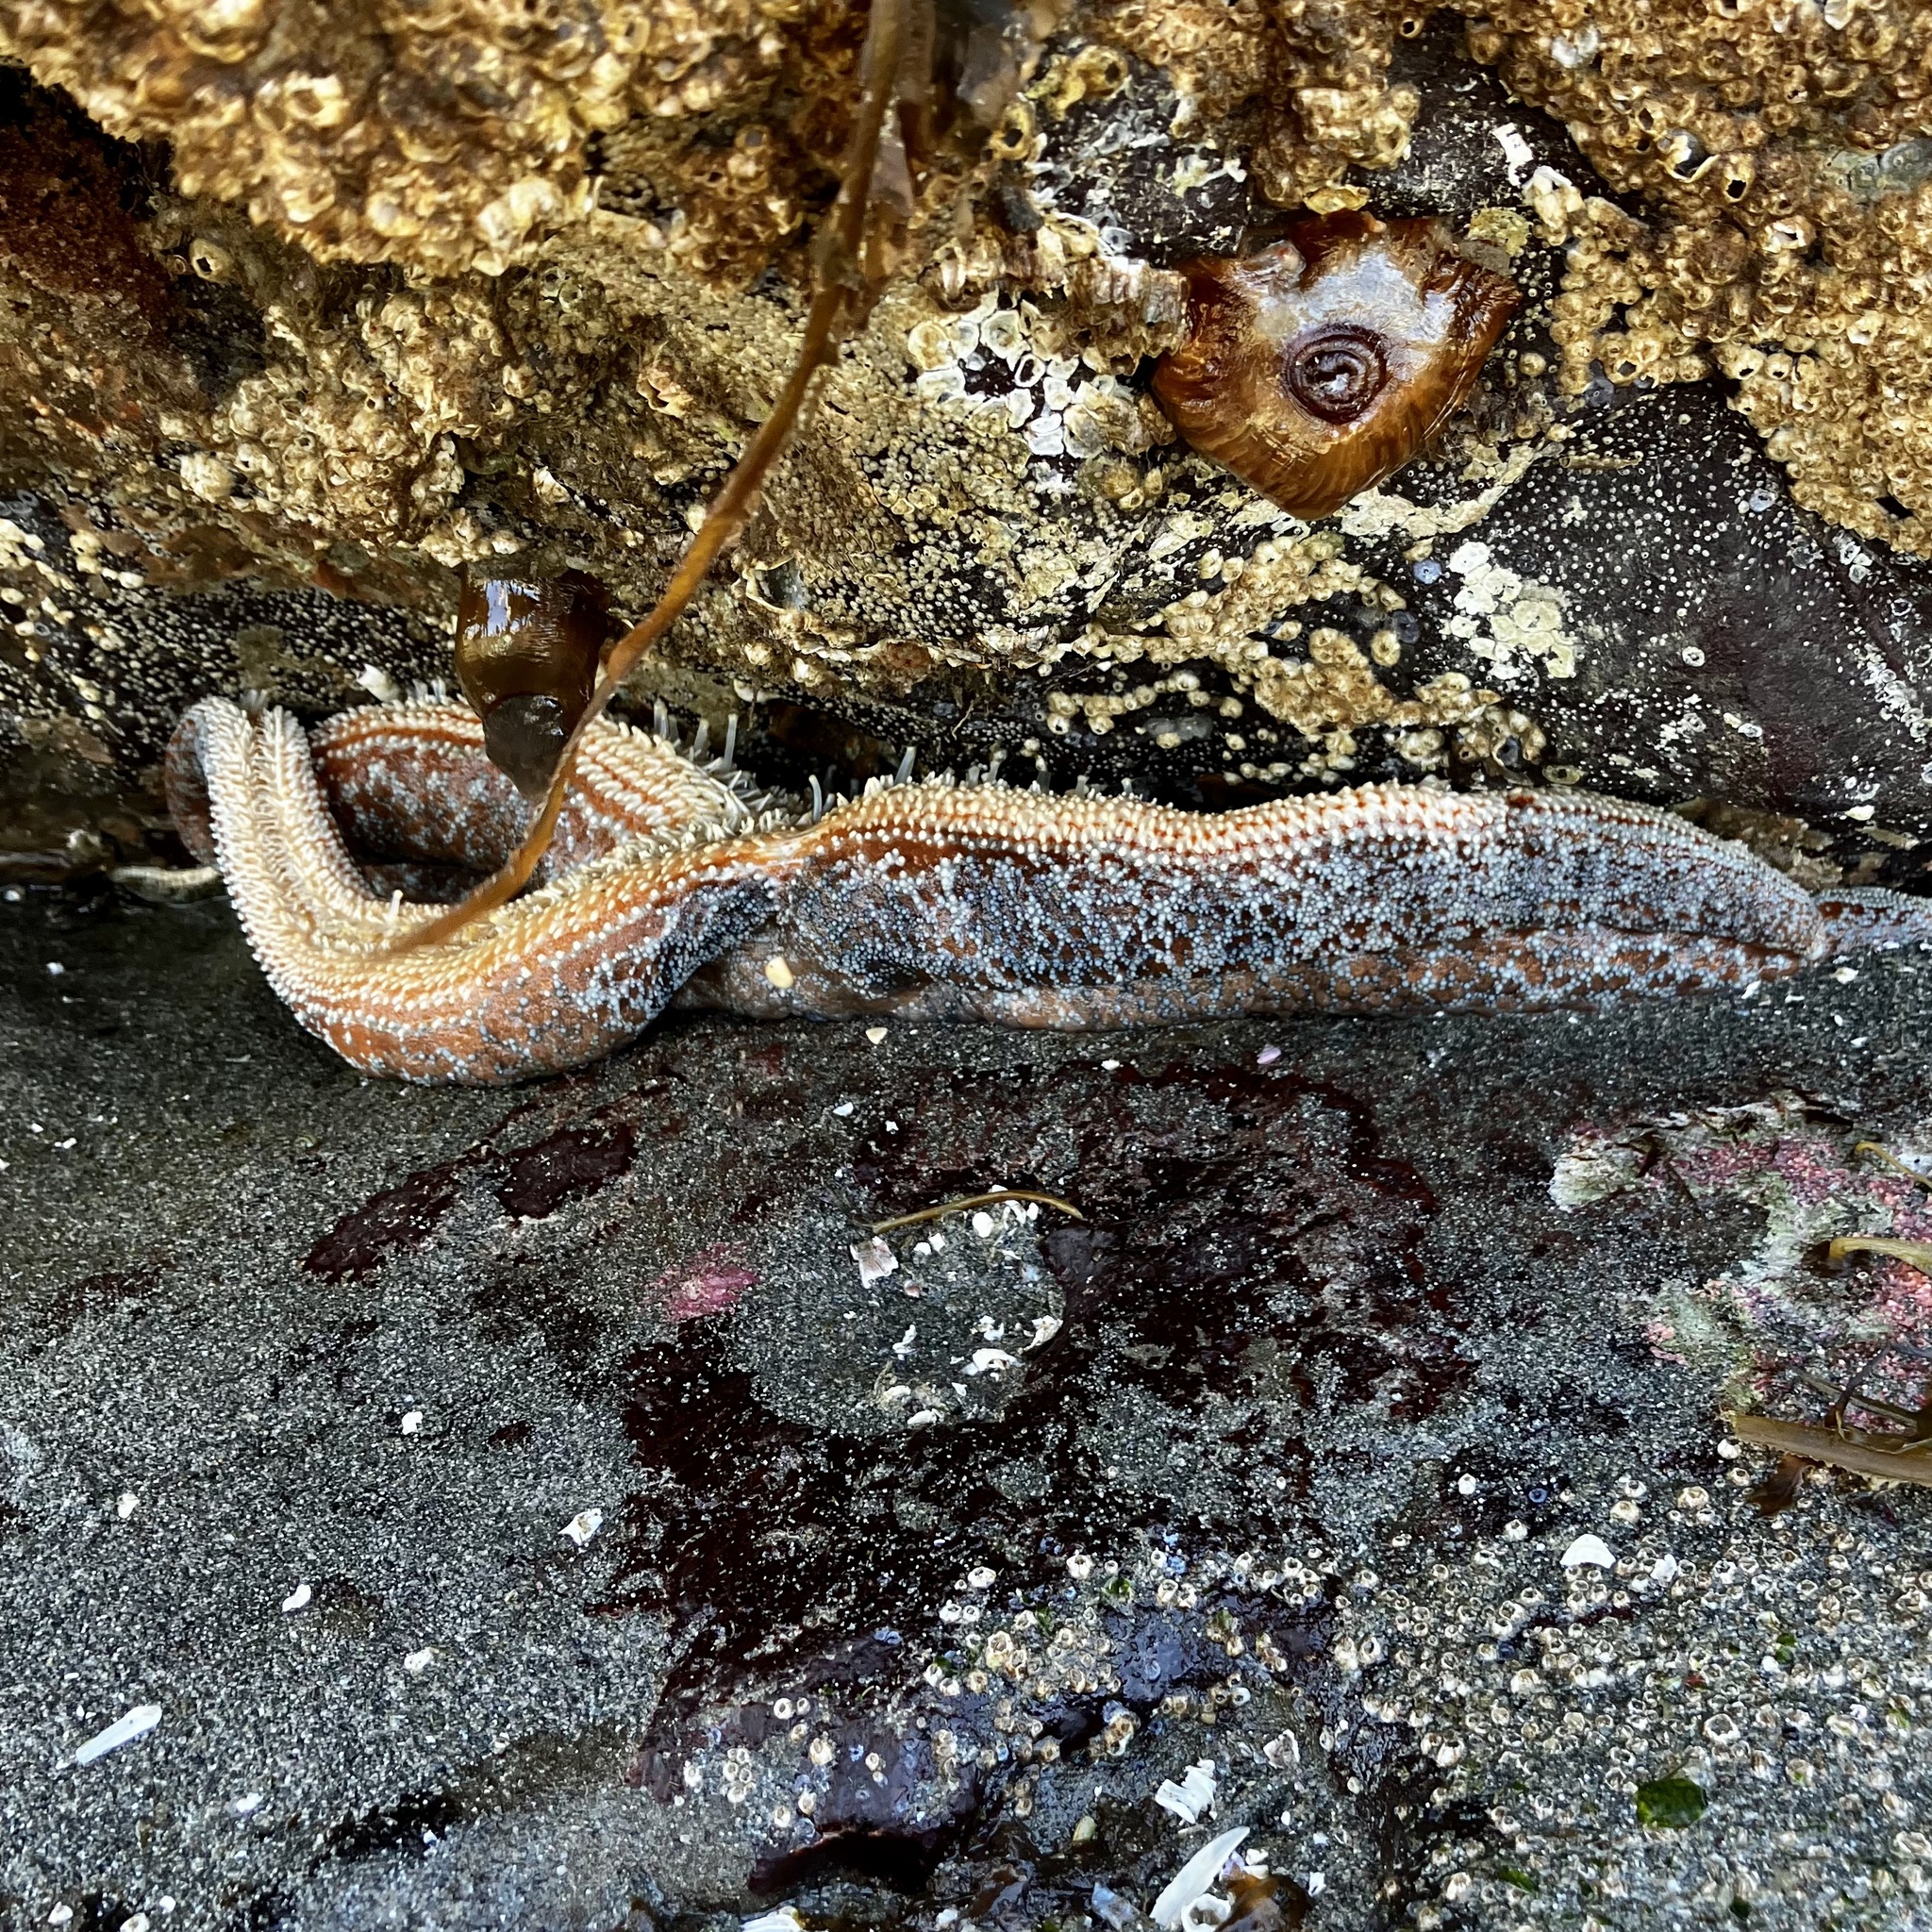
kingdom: Animalia
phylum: Echinodermata
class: Asteroidea
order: Forcipulatida
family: Asteriidae
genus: Evasterias
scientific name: Evasterias troschelii
